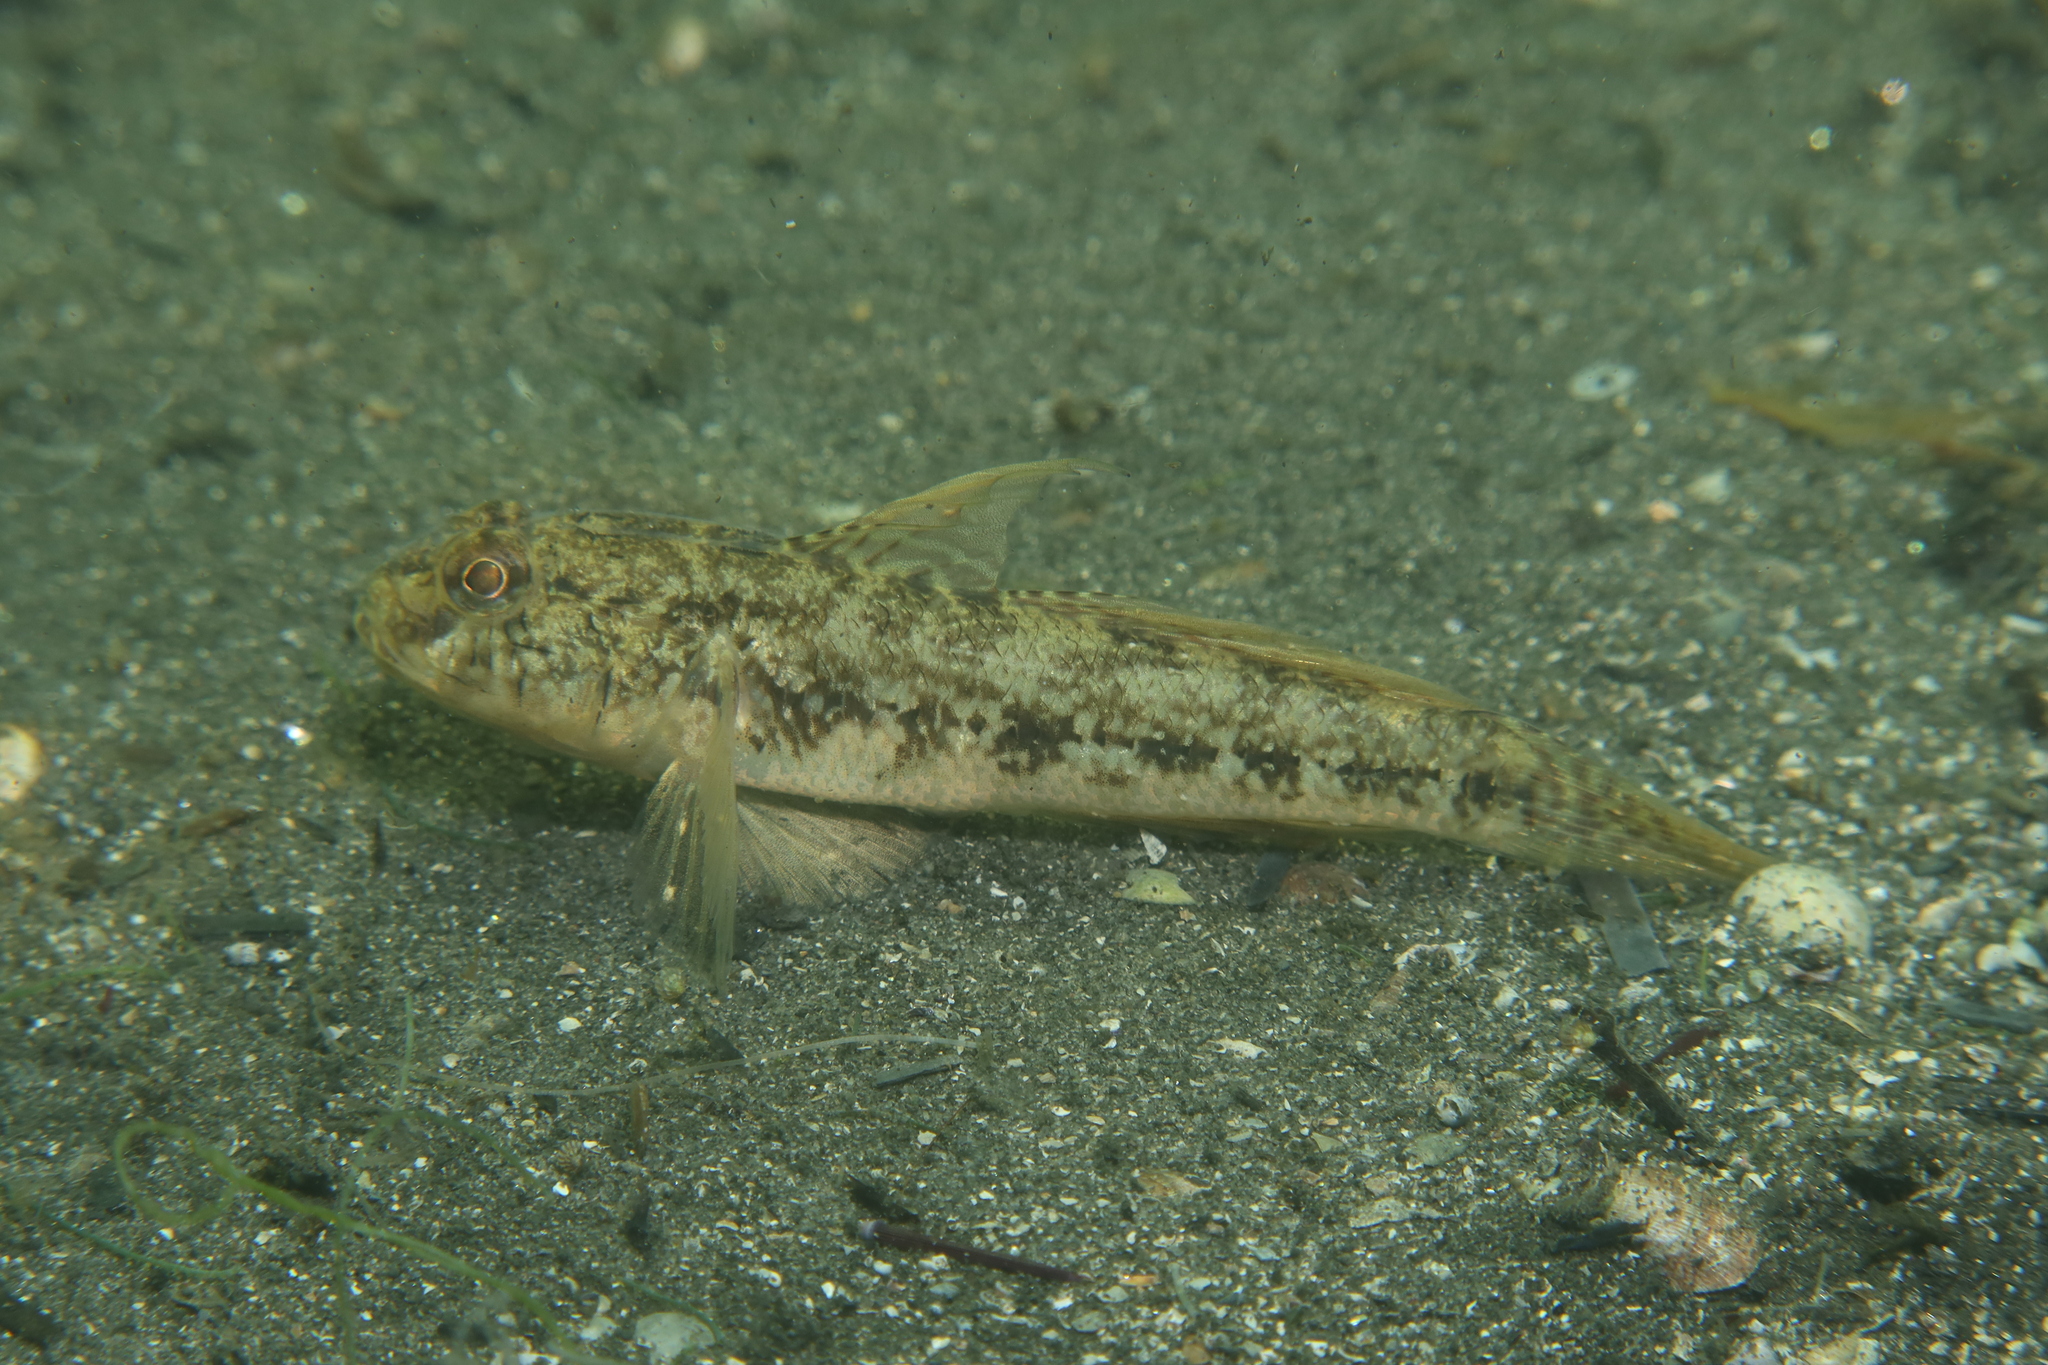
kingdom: Animalia
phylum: Chordata
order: Perciformes
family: Gobiidae
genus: Gobius
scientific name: Gobius niger
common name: Black goby
